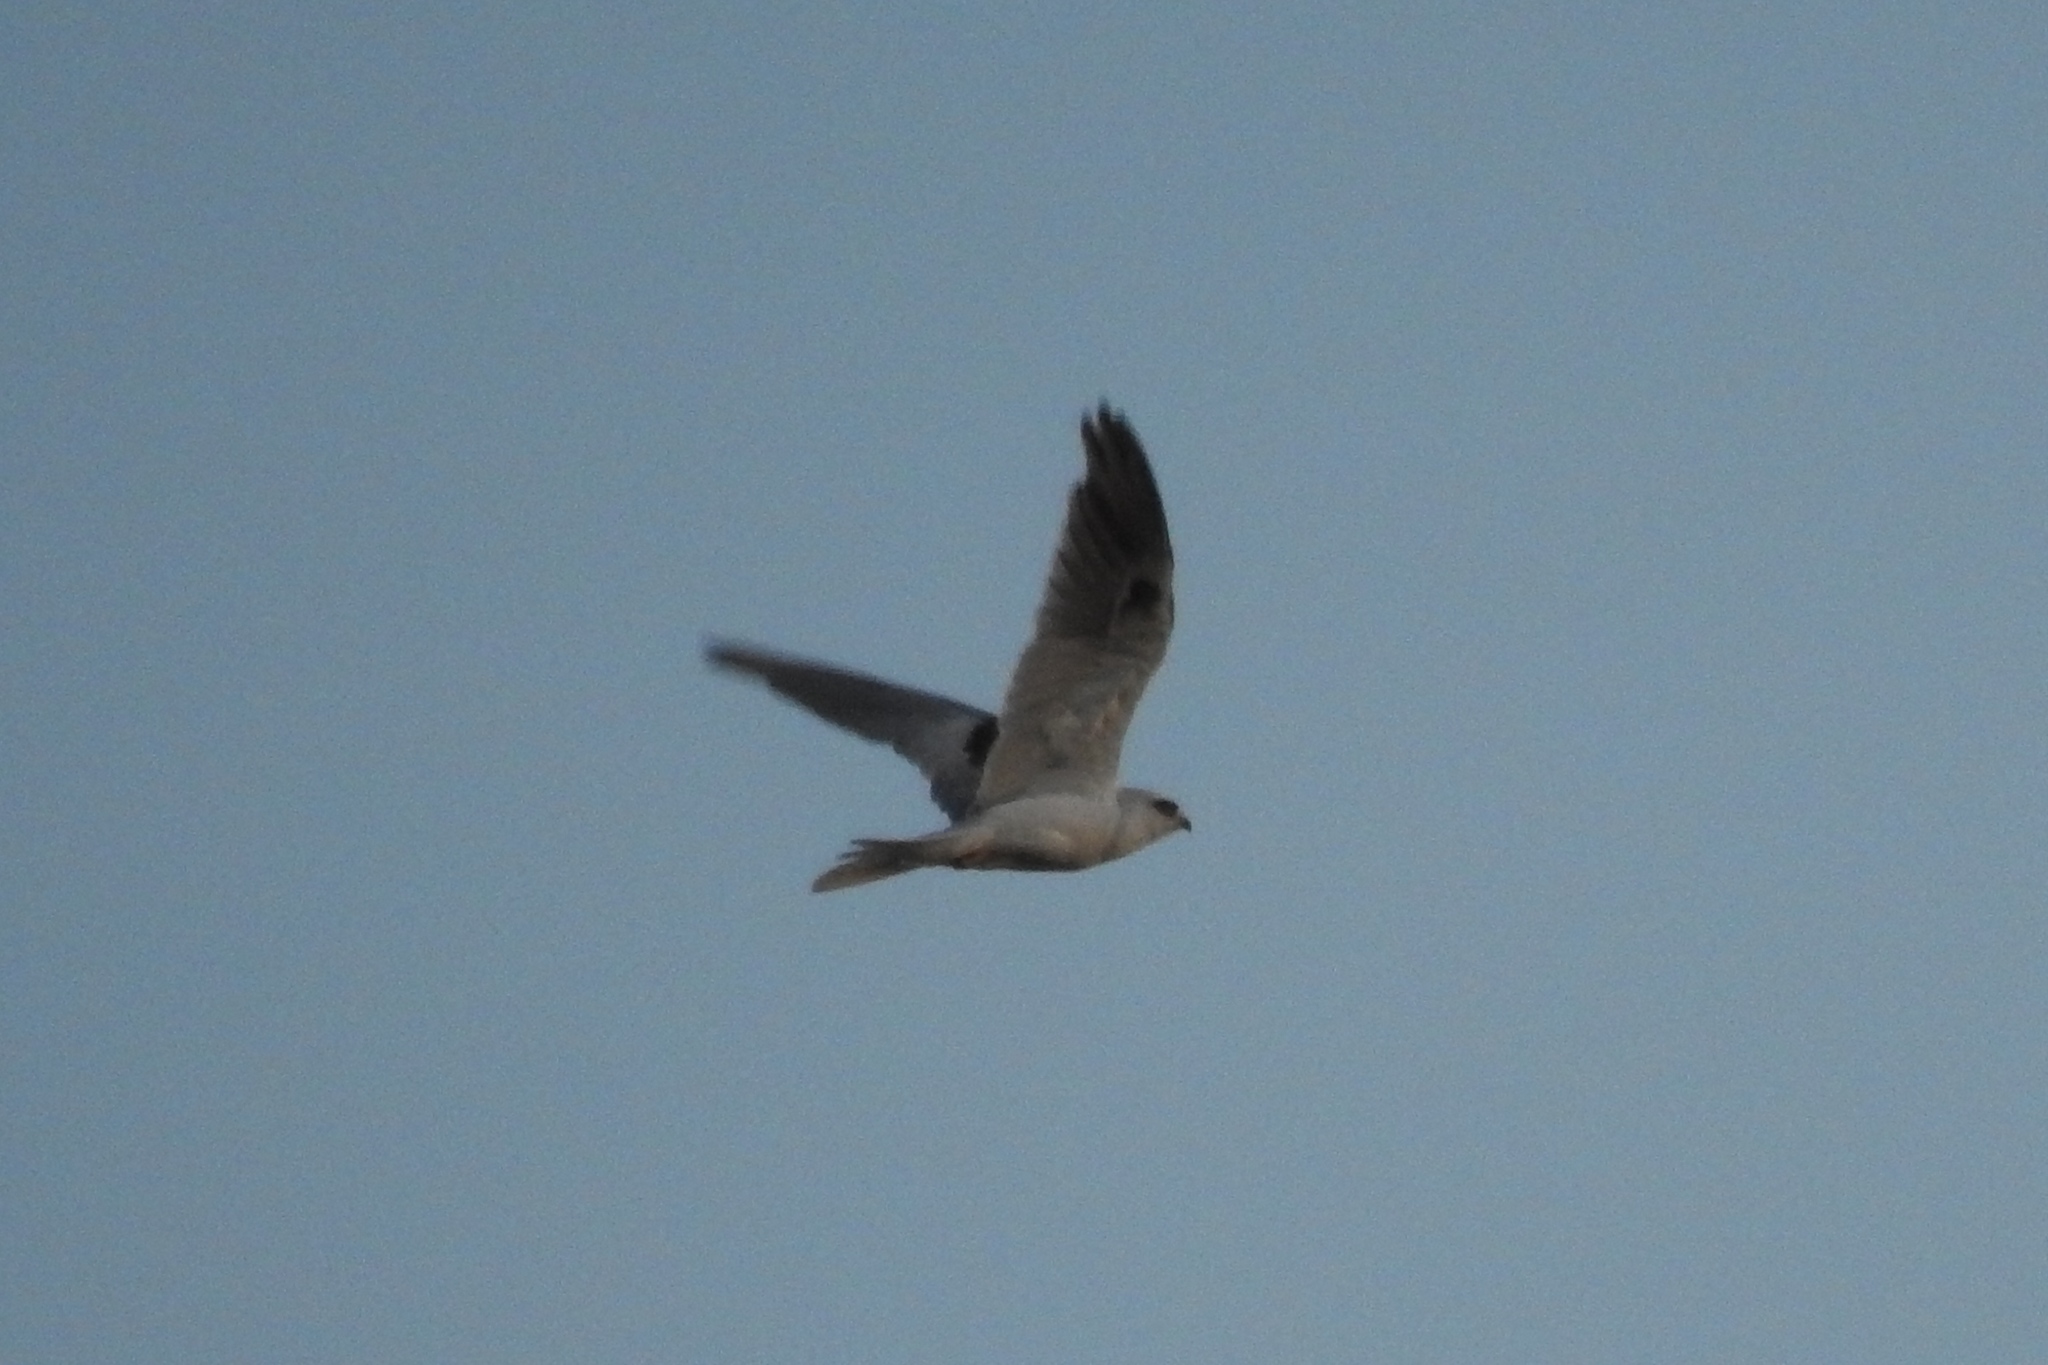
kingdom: Animalia
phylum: Chordata
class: Aves
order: Accipitriformes
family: Accipitridae
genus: Elanus
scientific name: Elanus leucurus
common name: White-tailed kite
